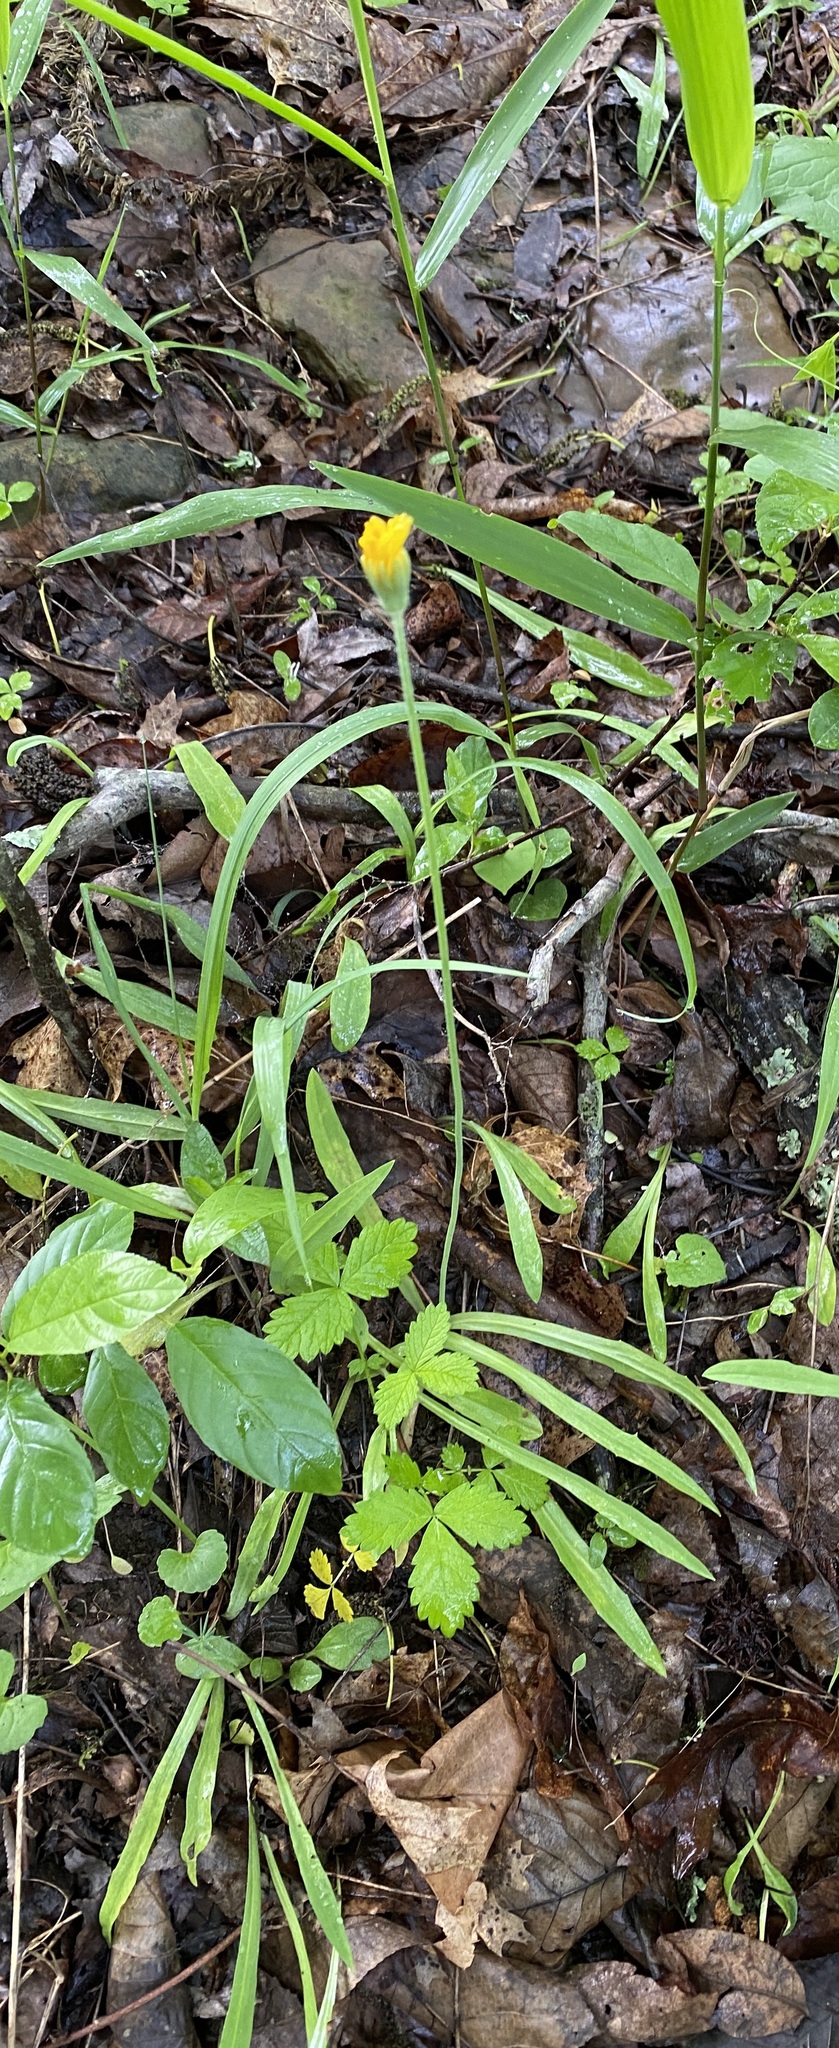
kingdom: Plantae
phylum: Tracheophyta
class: Magnoliopsida
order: Asterales
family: Asteraceae
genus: Krigia
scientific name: Krigia dandelion
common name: Colonial dwarf-dandelion
